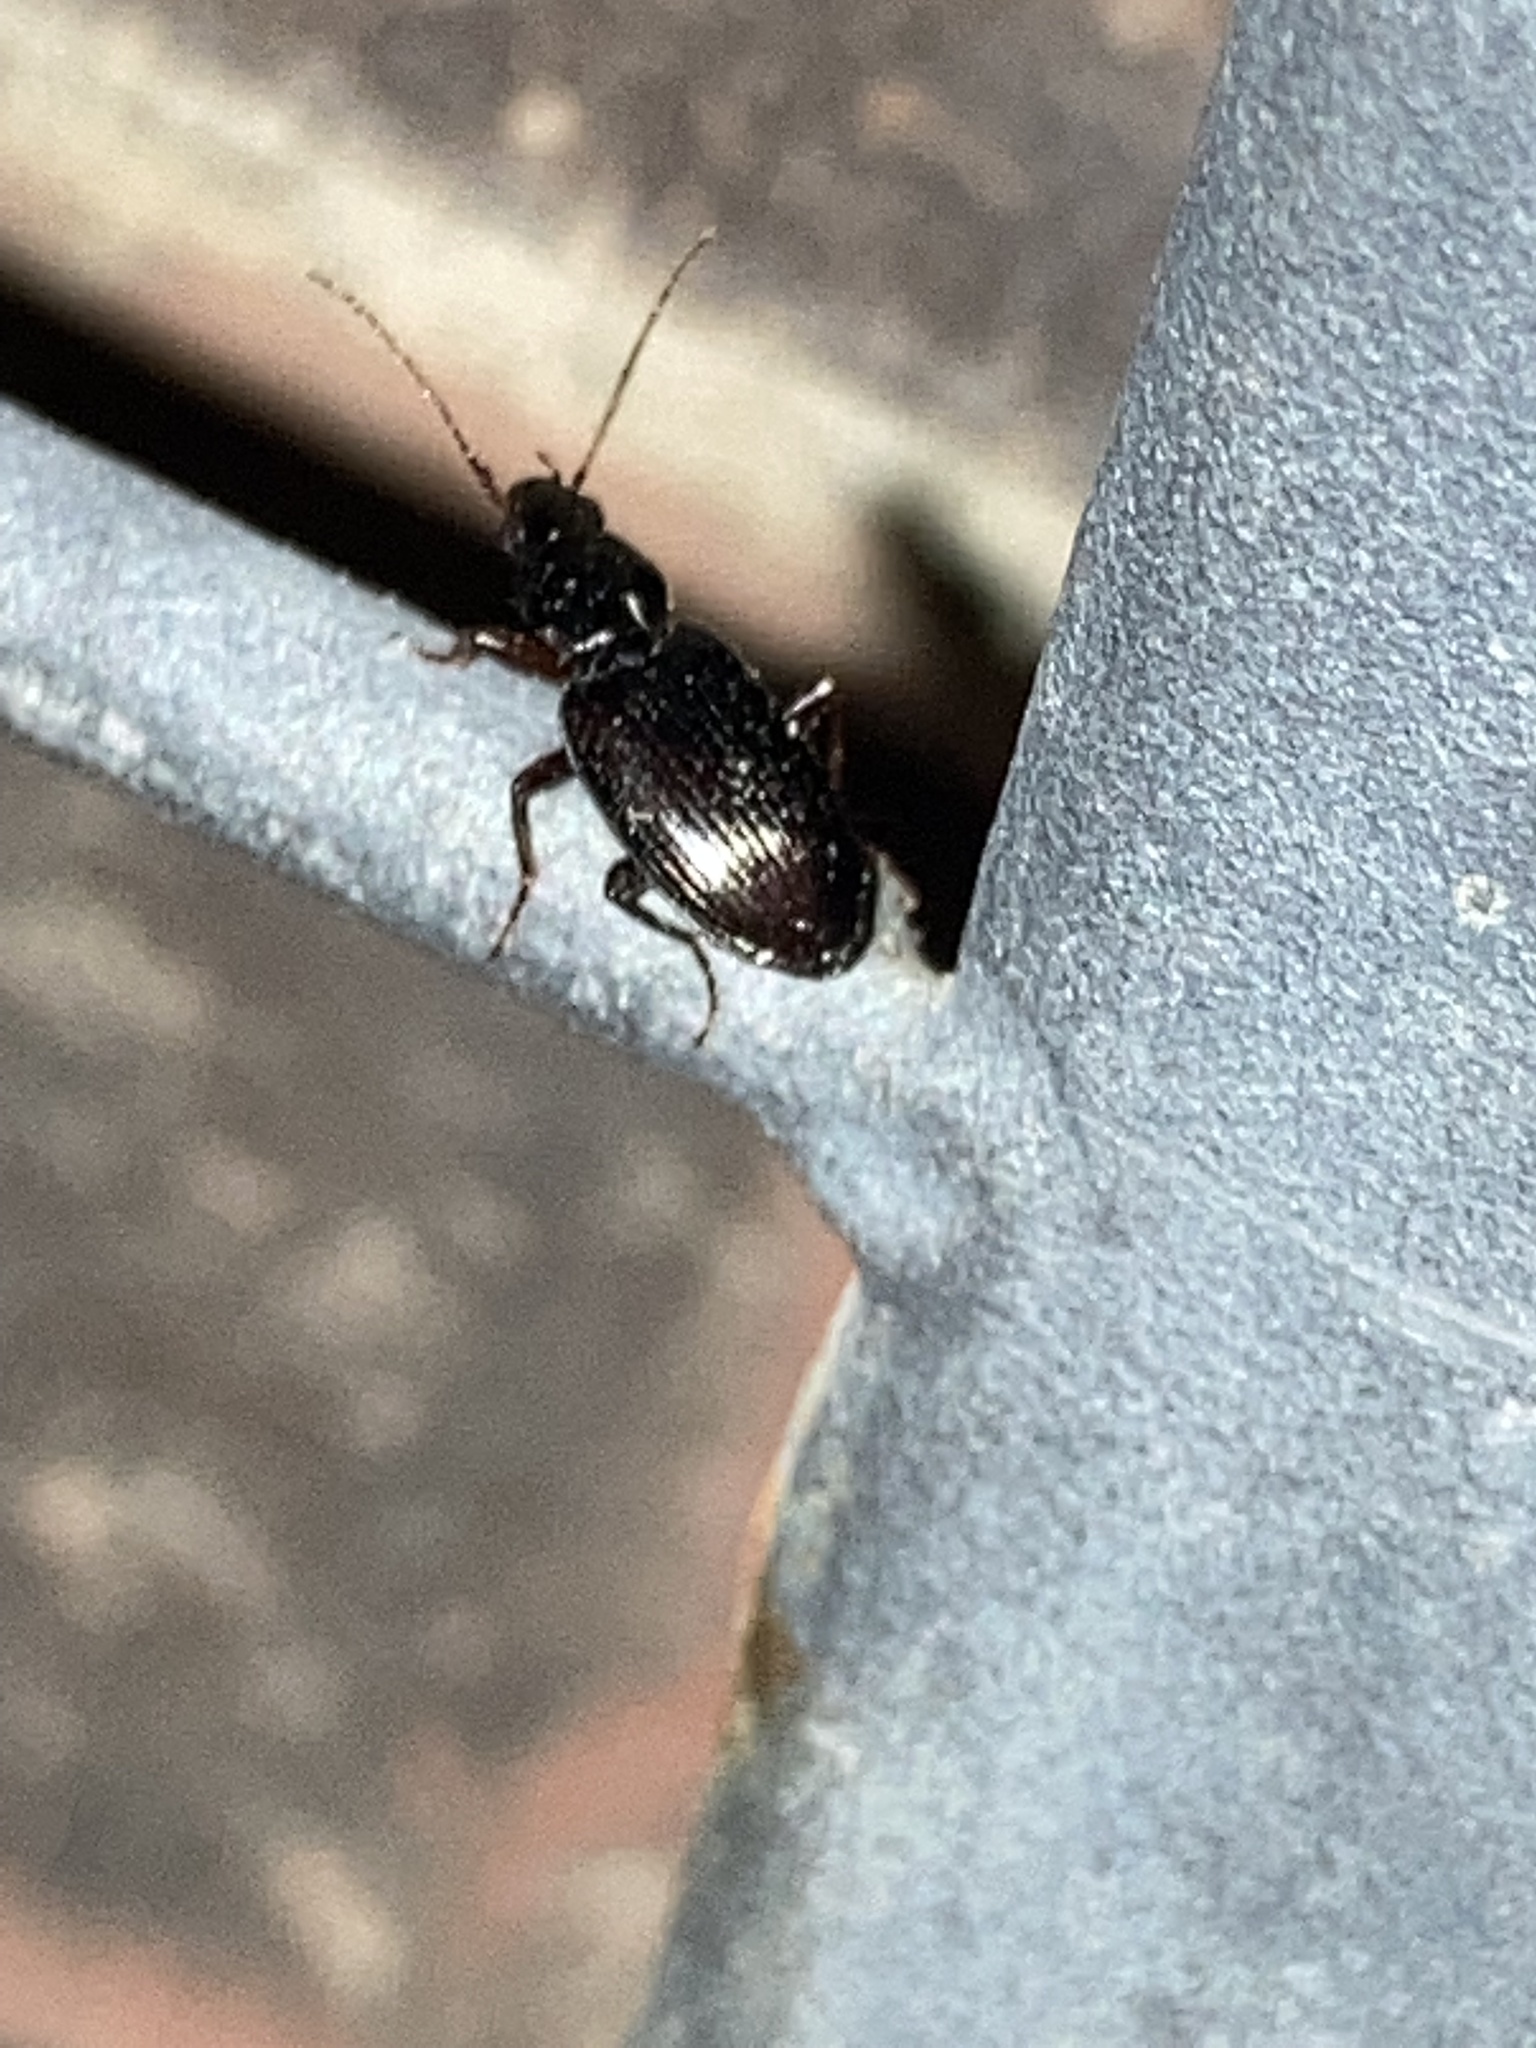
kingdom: Animalia
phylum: Arthropoda
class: Insecta
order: Coleoptera
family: Carabidae
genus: Agonum
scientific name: Agonum punctiforme
